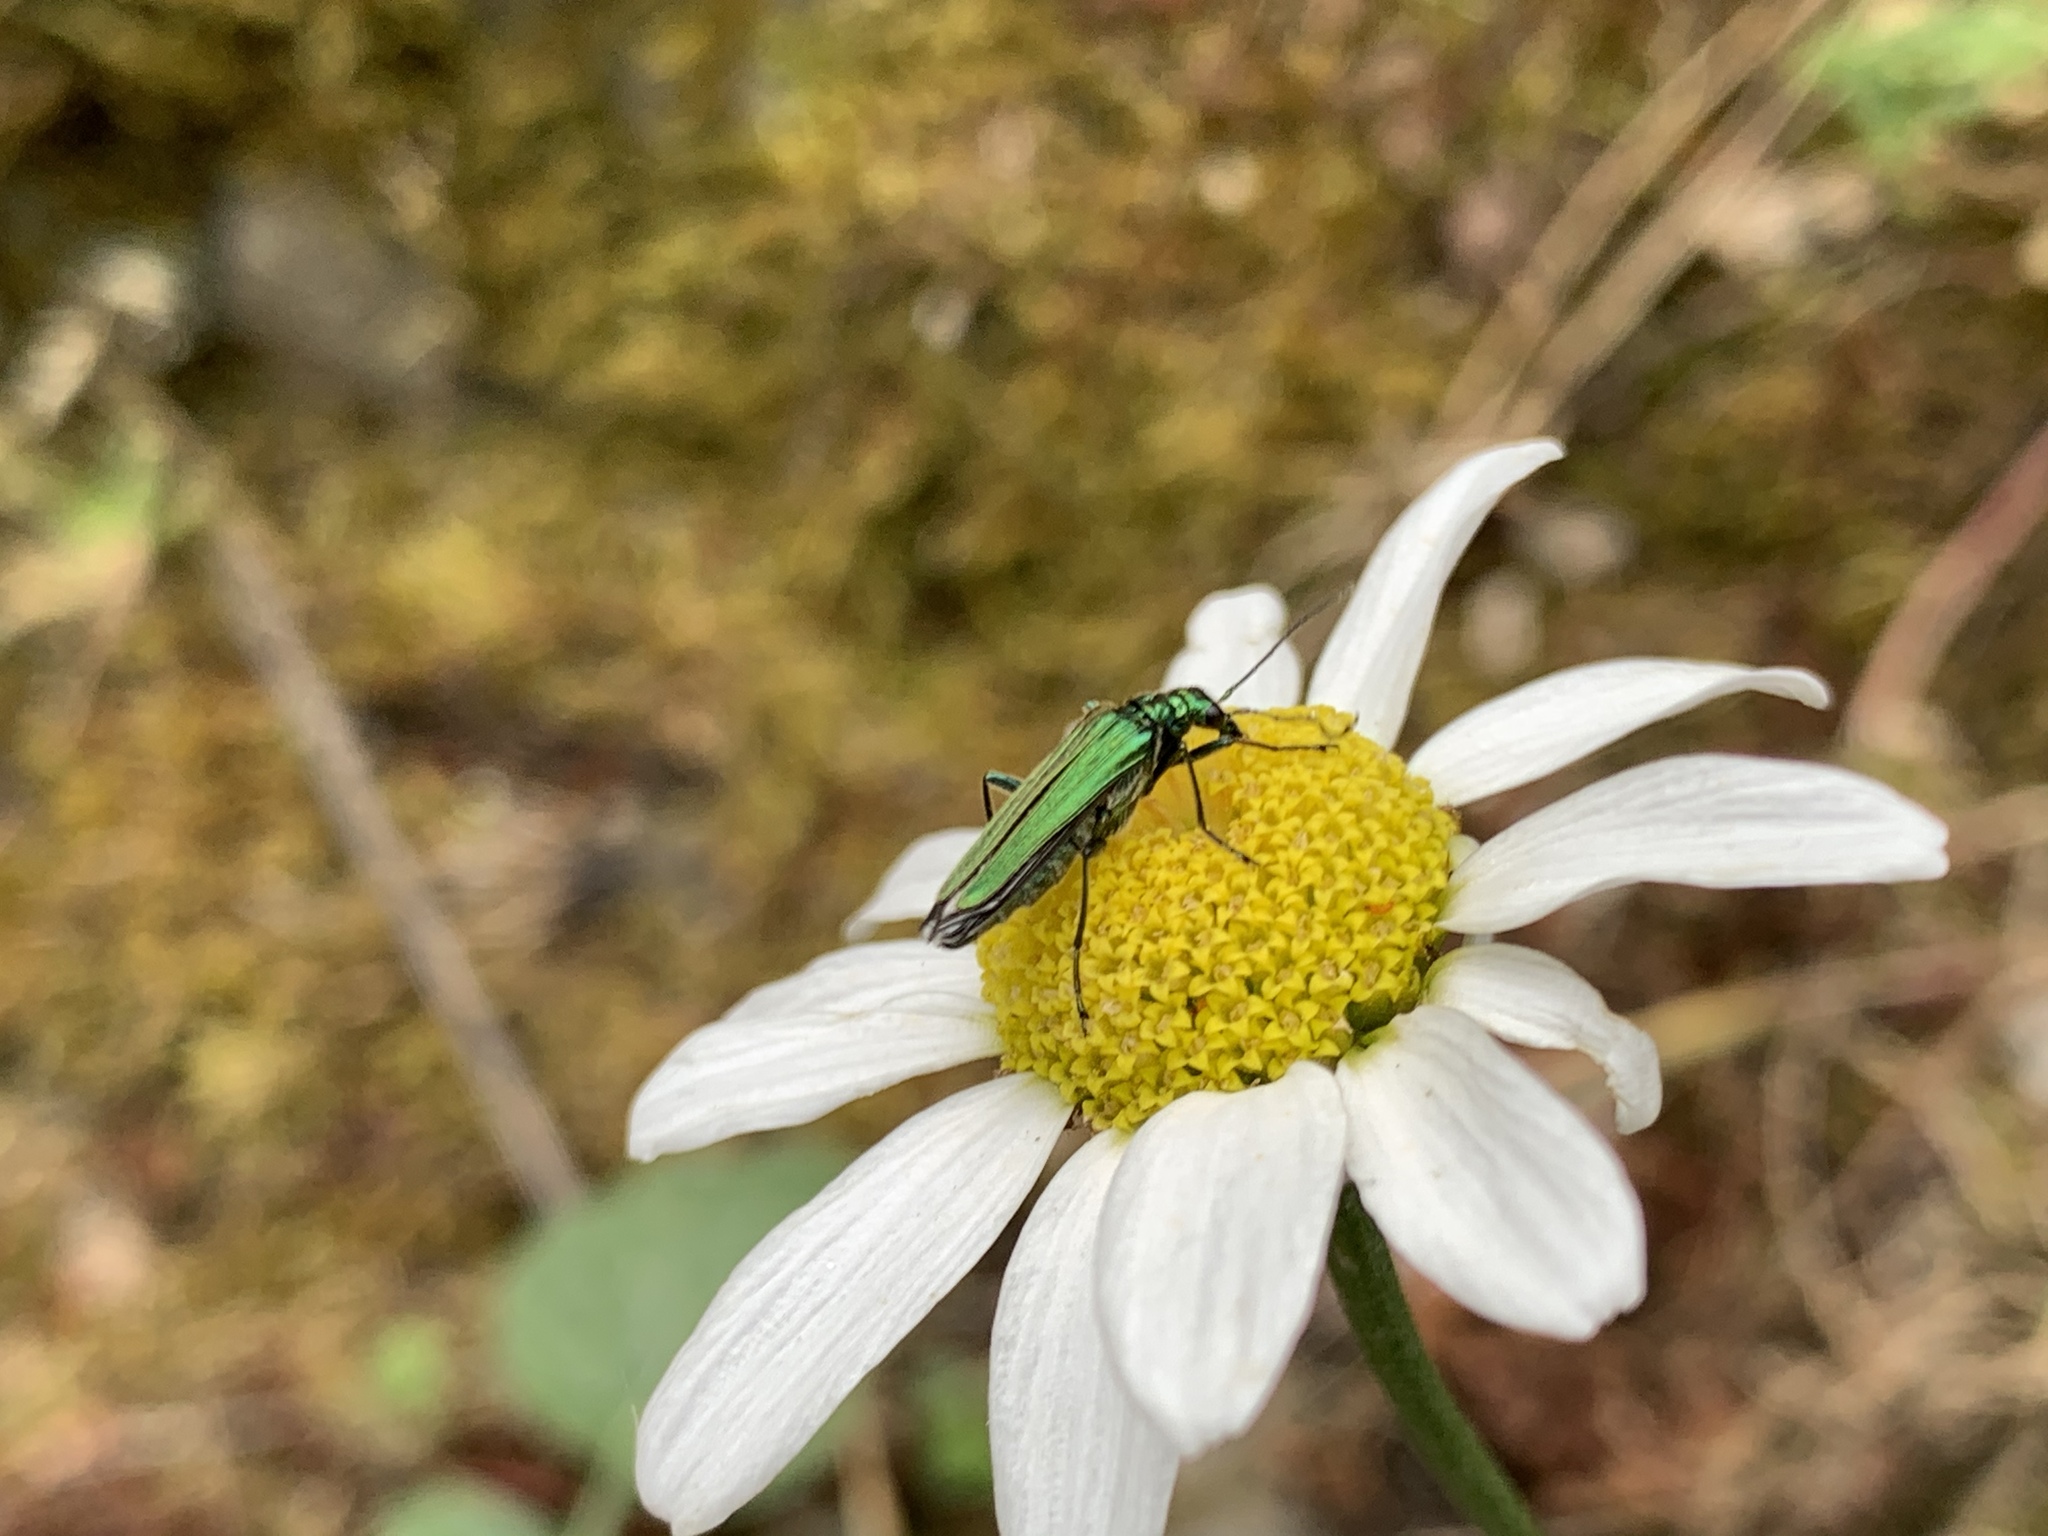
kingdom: Animalia
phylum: Arthropoda
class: Insecta
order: Coleoptera
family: Oedemeridae
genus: Oedemera
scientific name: Oedemera nobilis
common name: Swollen-thighed beetle
